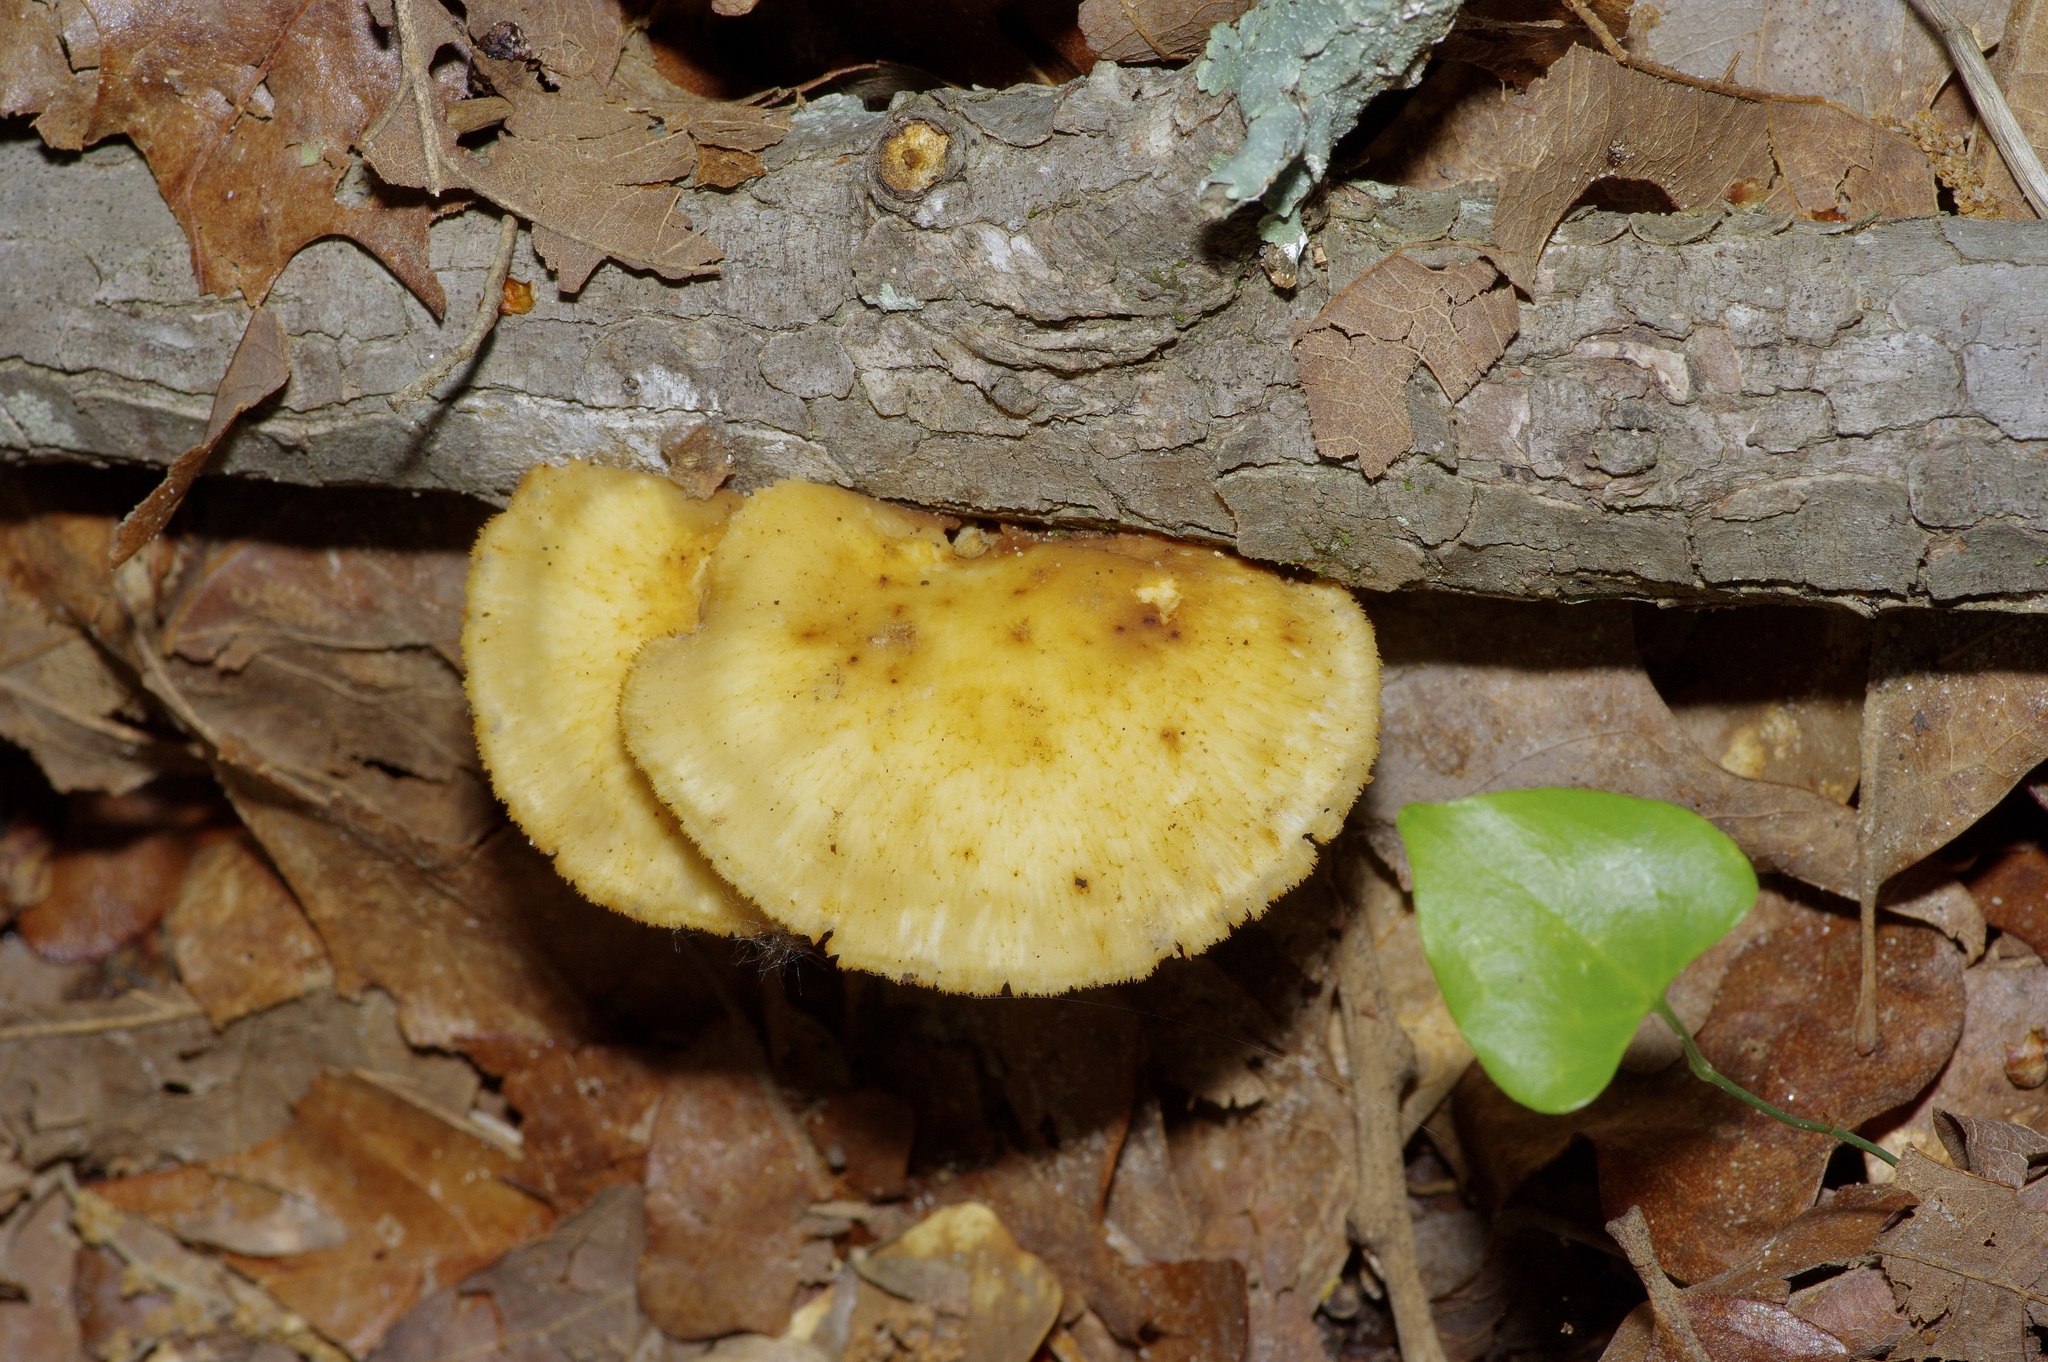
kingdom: Fungi
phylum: Basidiomycota
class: Agaricomycetes
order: Polyporales
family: Polyporaceae
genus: Neofavolus
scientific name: Neofavolus alveolaris
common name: Hexagonal-pored polypore
